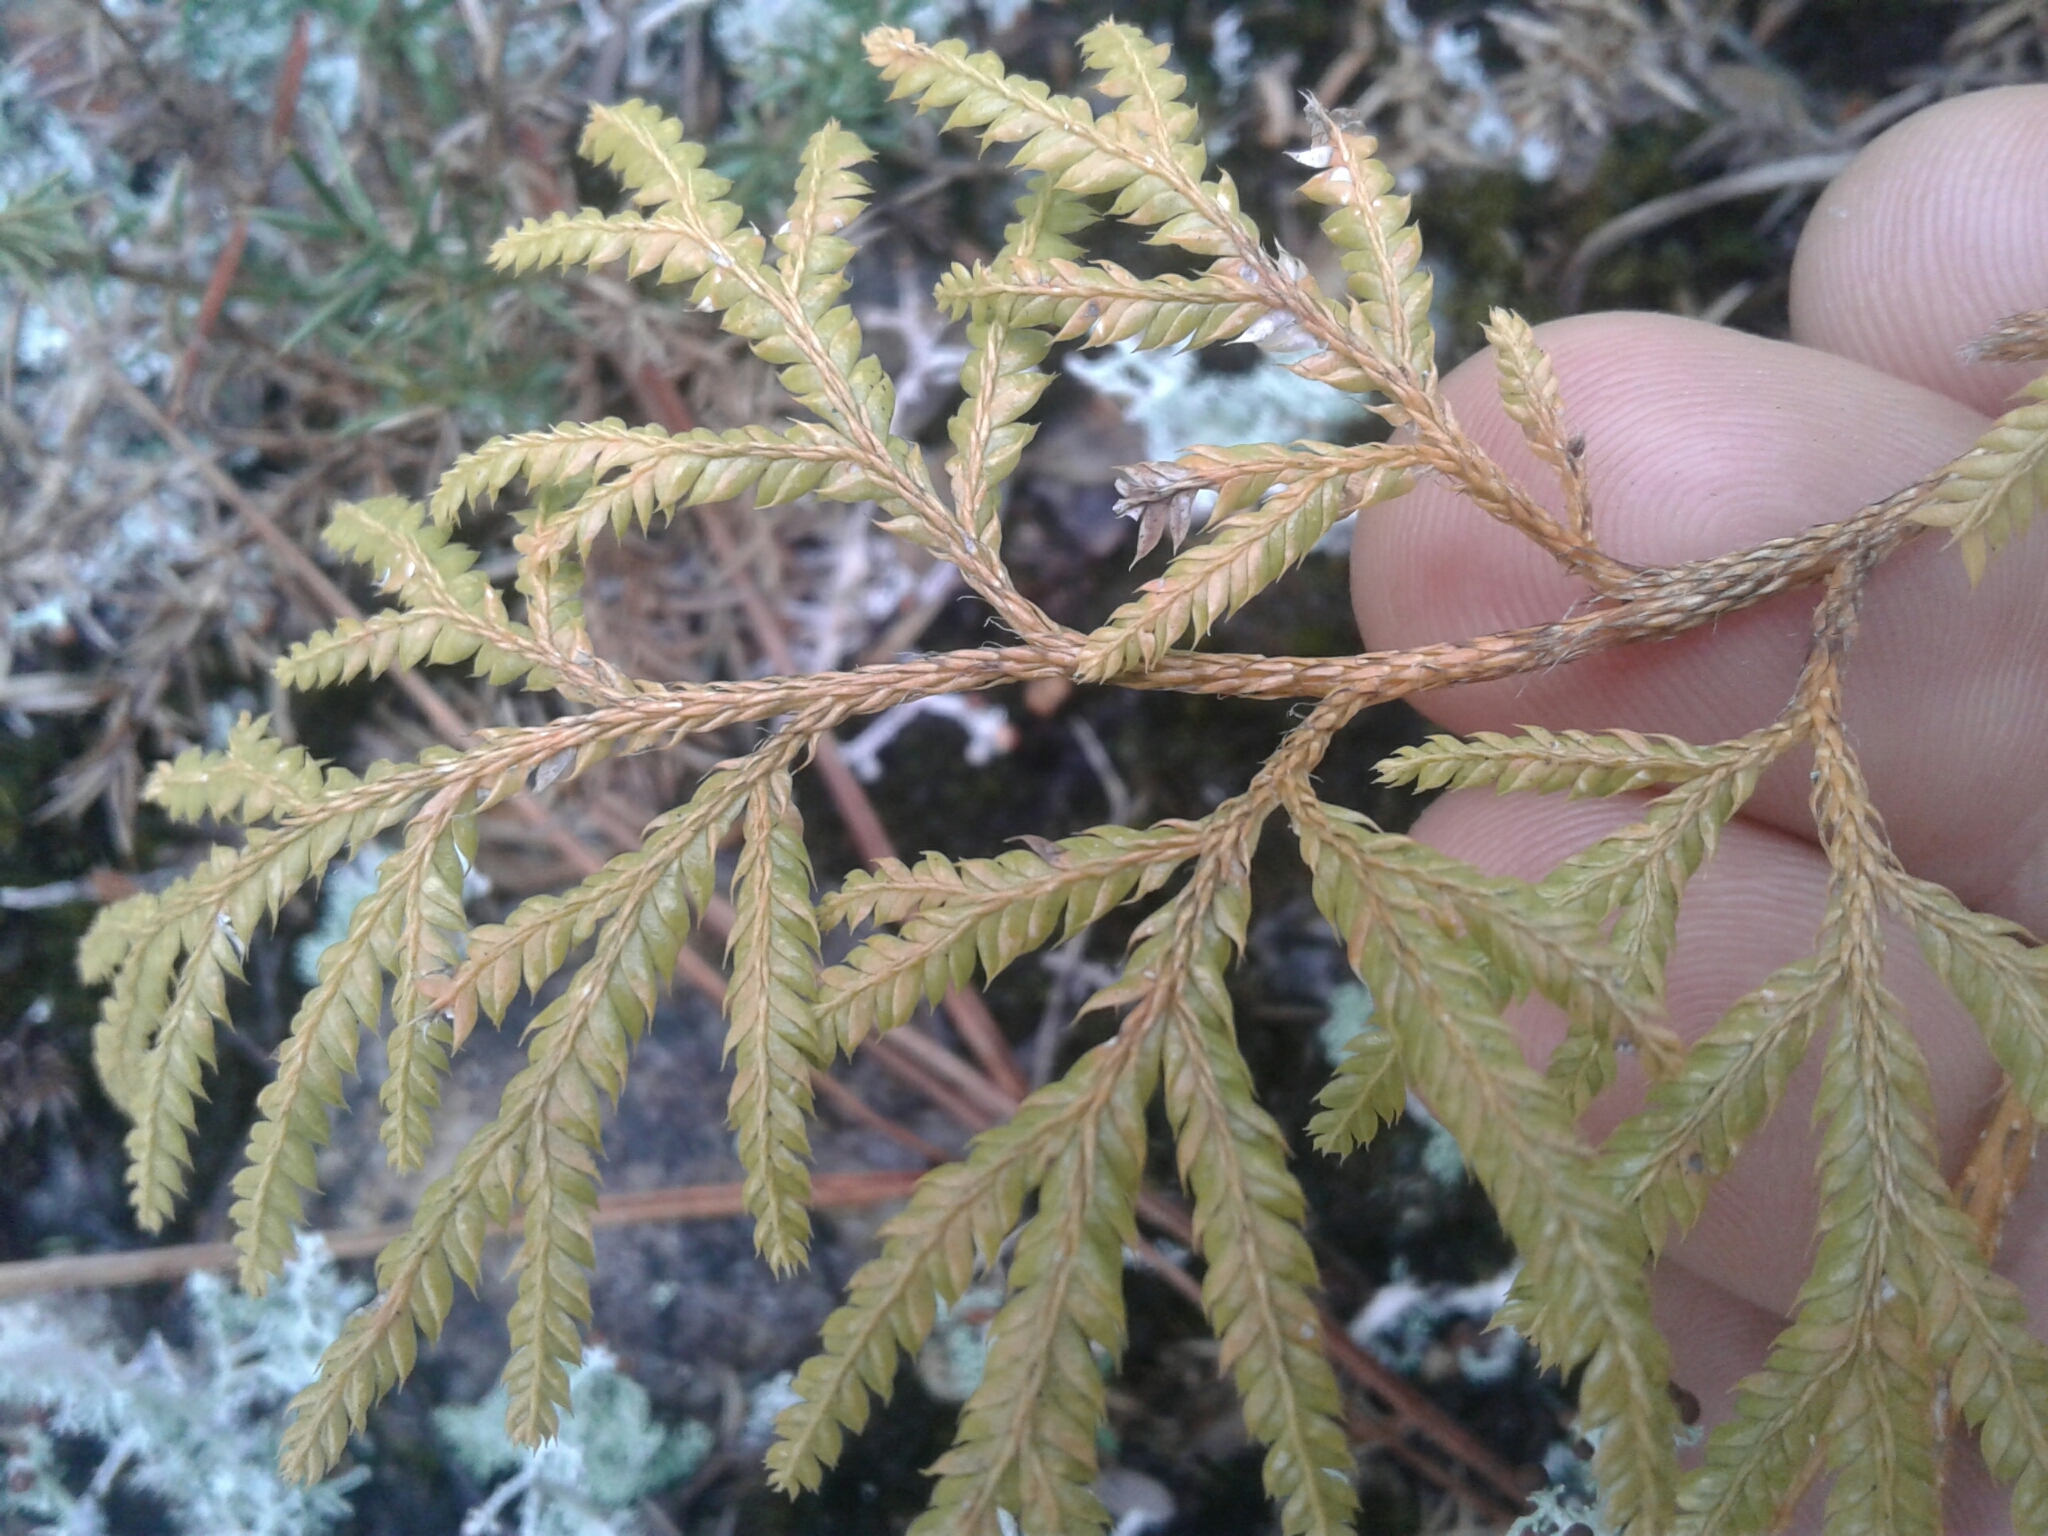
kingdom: Plantae
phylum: Tracheophyta
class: Lycopodiopsida
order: Lycopodiales
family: Lycopodiaceae
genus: Lycopodium
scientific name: Lycopodium volubile
